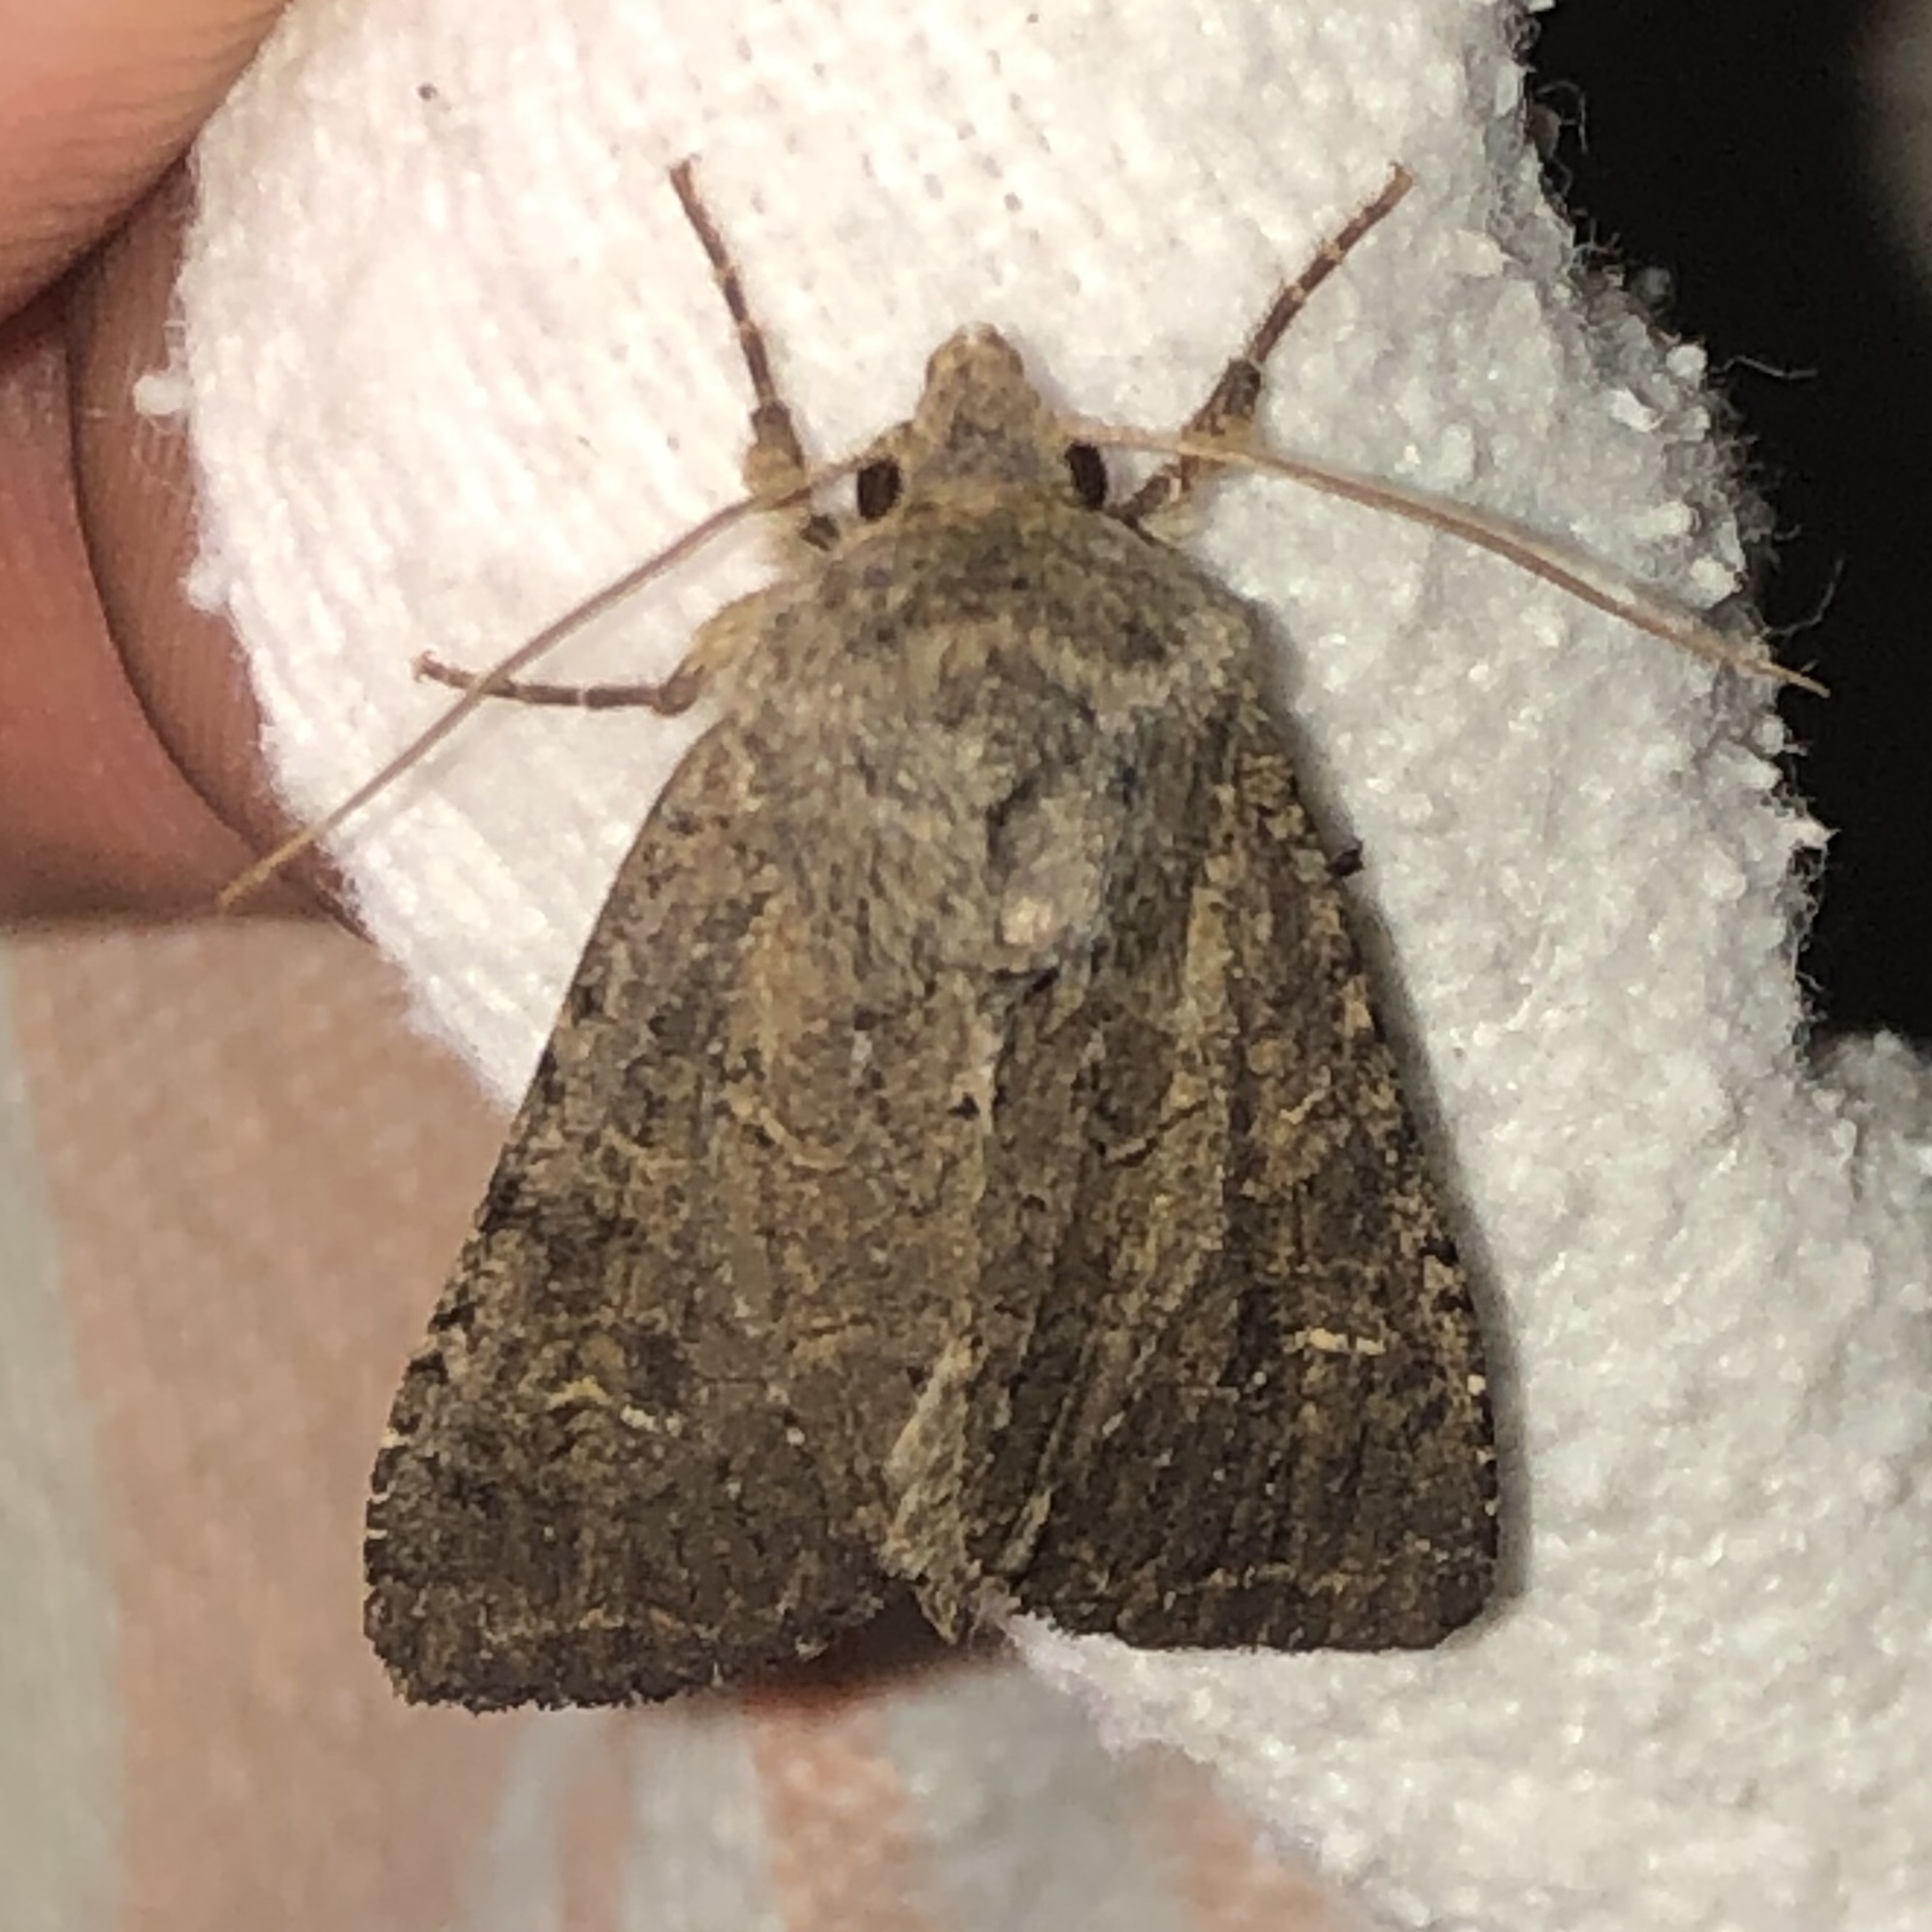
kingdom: Animalia
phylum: Arthropoda
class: Insecta
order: Lepidoptera
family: Noctuidae
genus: Apamea
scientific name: Apamea devastator
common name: Glassy cutworm
